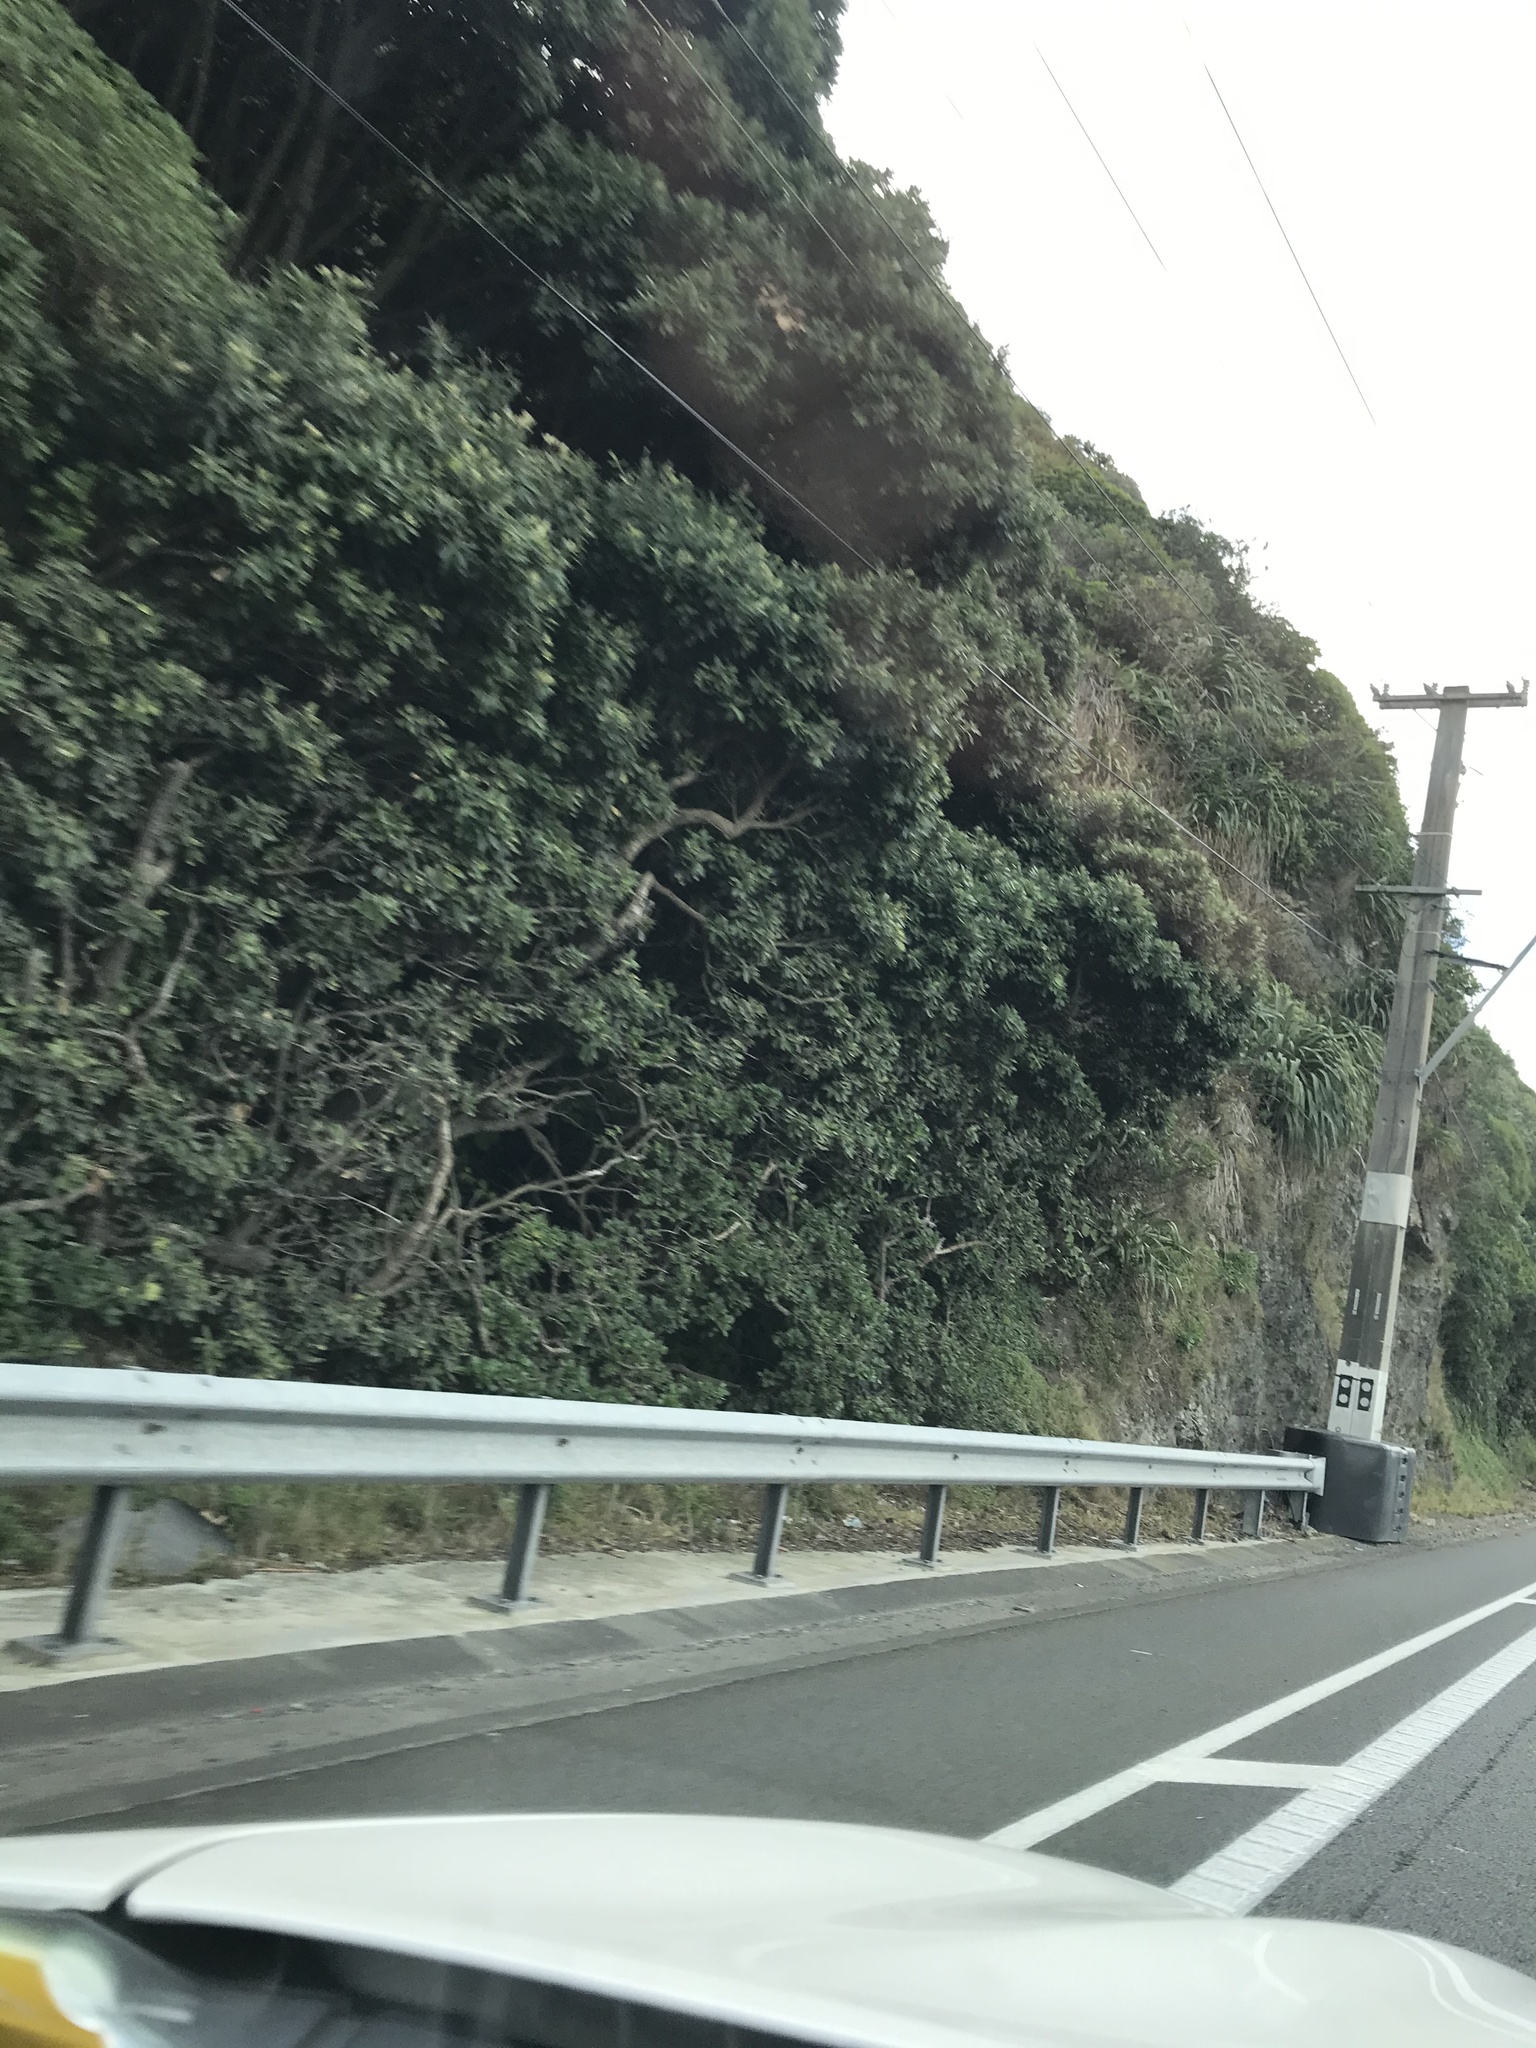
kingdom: Plantae
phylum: Tracheophyta
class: Magnoliopsida
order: Myrtales
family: Myrtaceae
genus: Metrosideros
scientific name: Metrosideros excelsa
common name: New zealand christmastree
